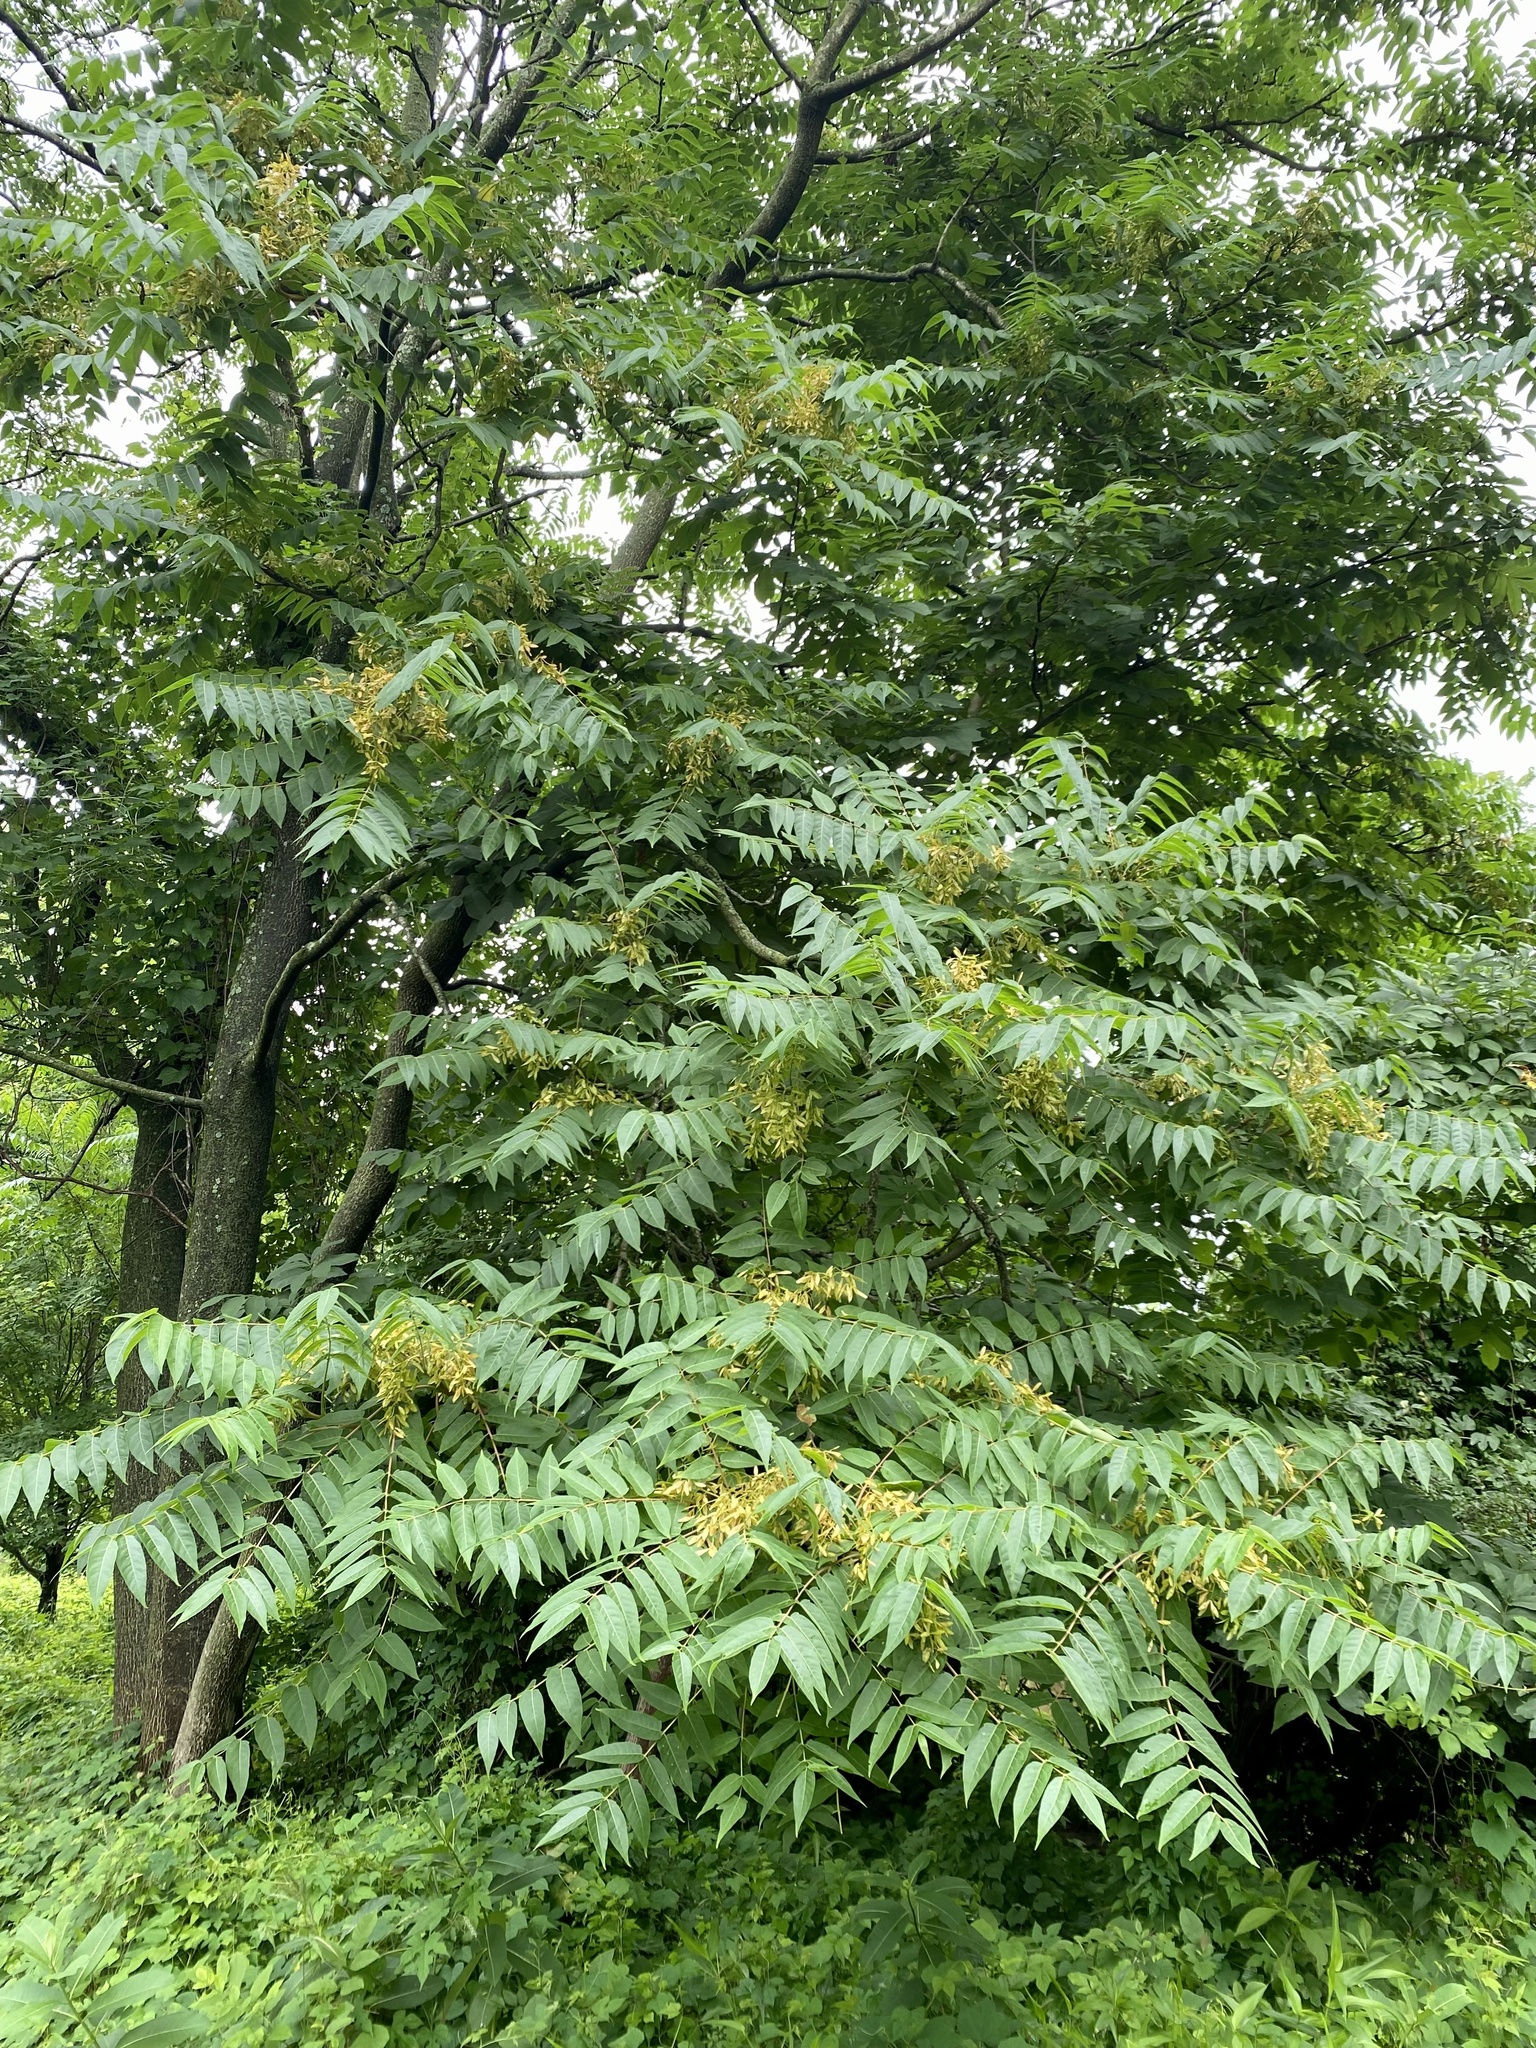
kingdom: Plantae
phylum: Tracheophyta
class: Magnoliopsida
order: Sapindales
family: Simaroubaceae
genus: Ailanthus
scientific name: Ailanthus altissima
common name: Tree-of-heaven
